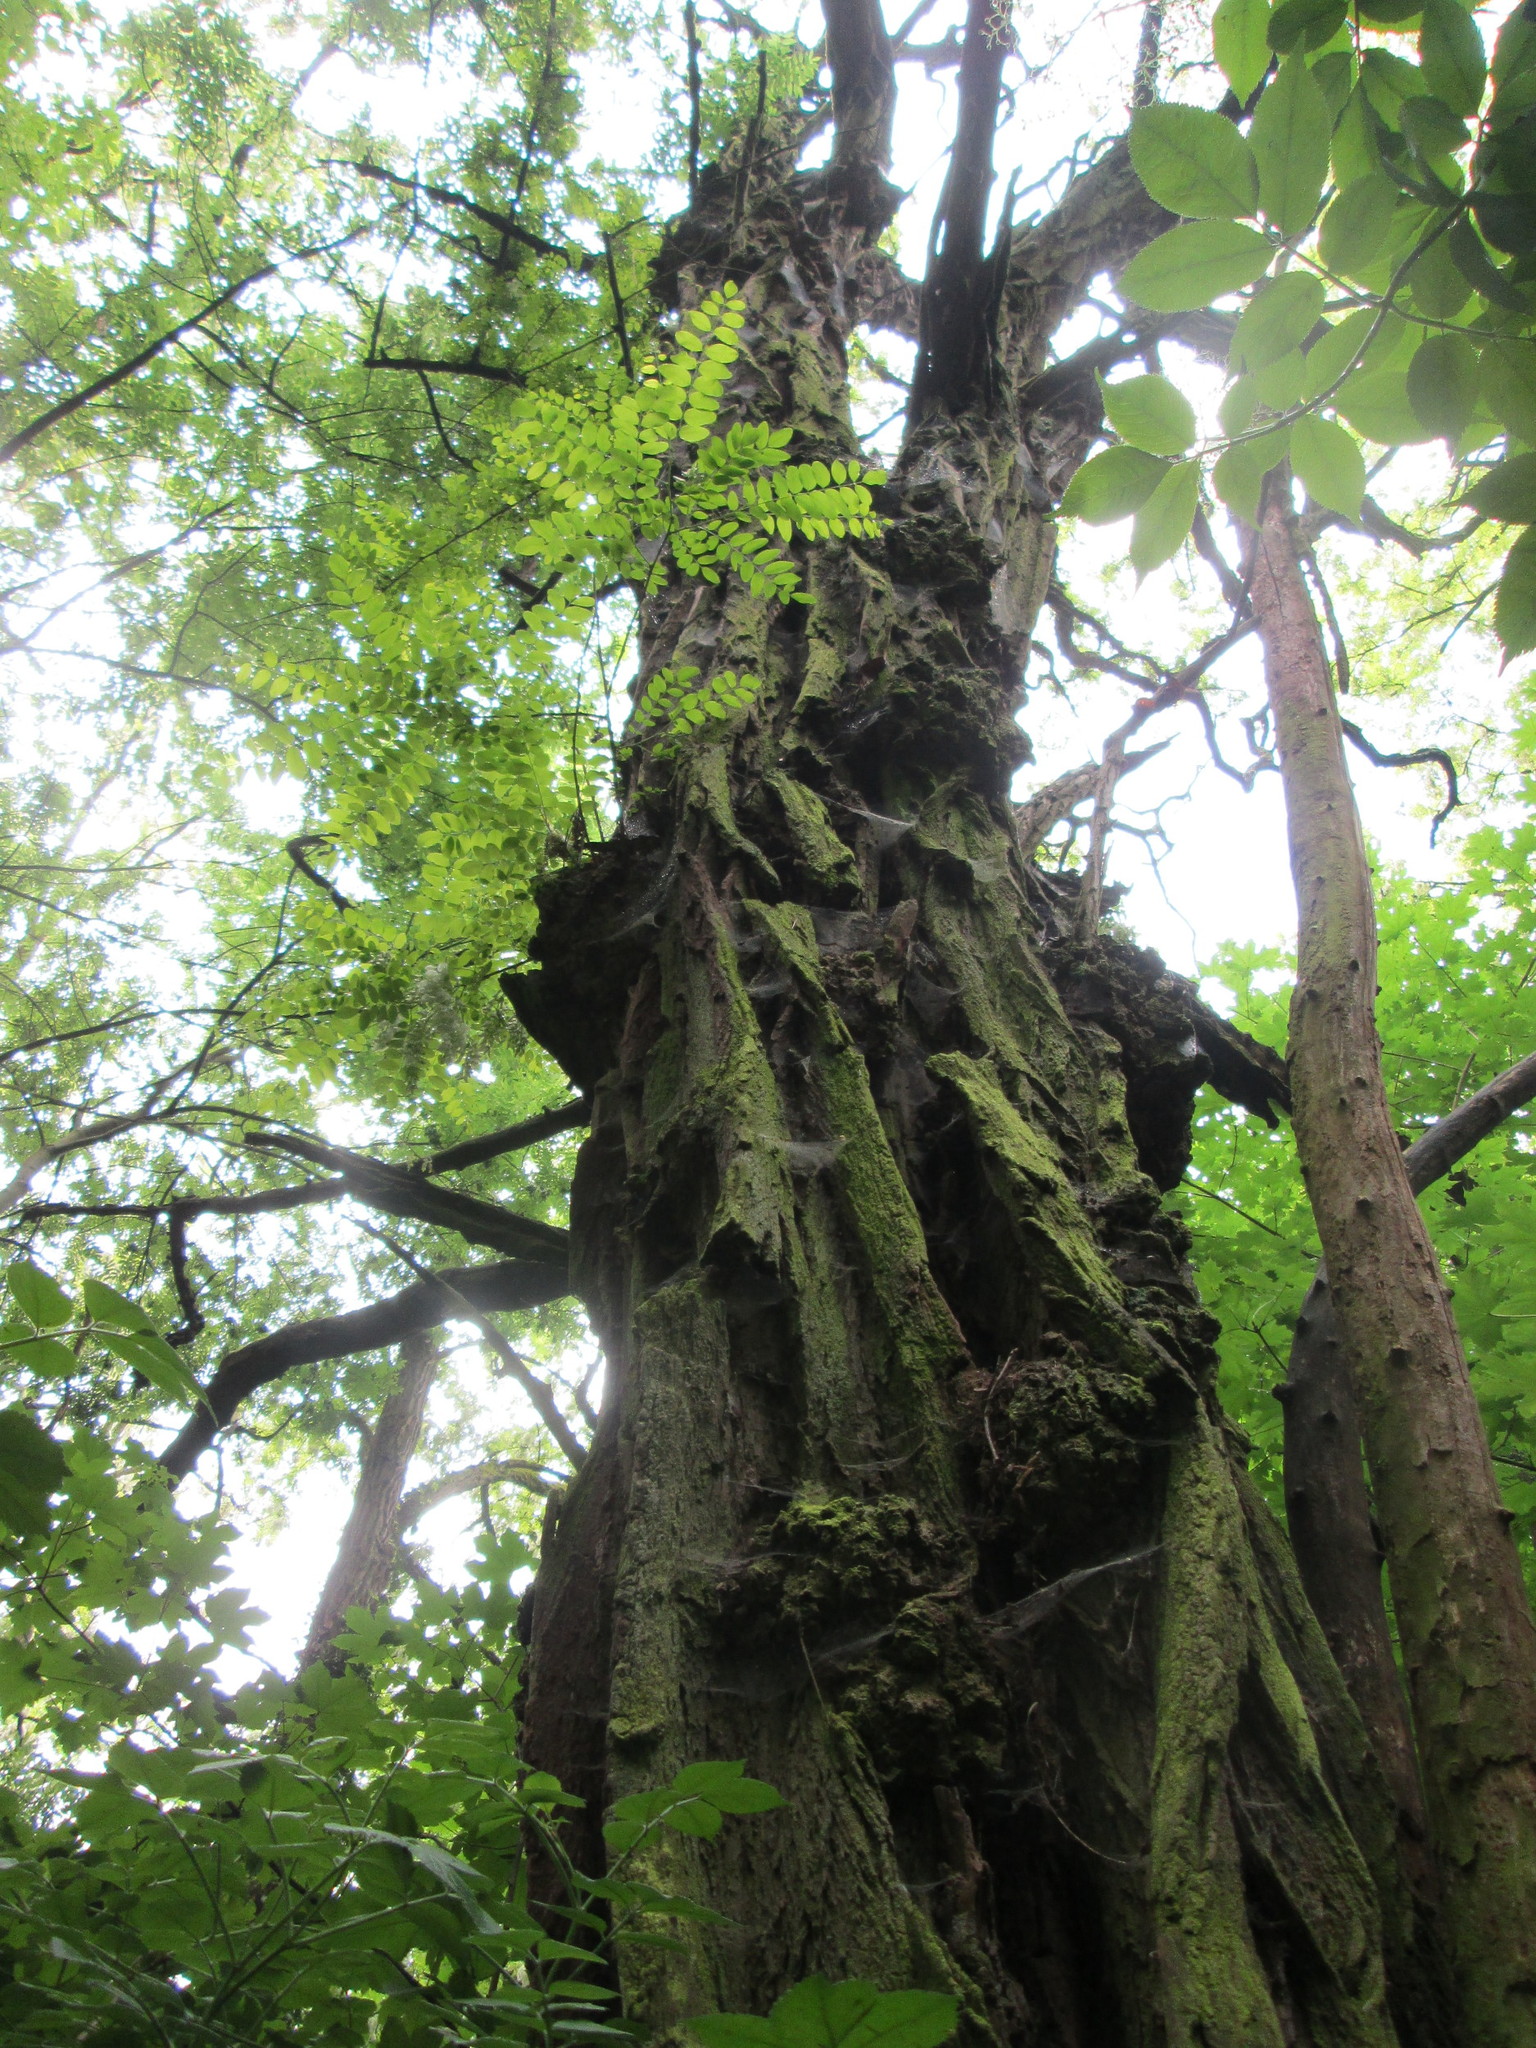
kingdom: Plantae
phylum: Tracheophyta
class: Magnoliopsida
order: Fabales
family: Fabaceae
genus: Robinia
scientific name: Robinia pseudoacacia
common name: Black locust
